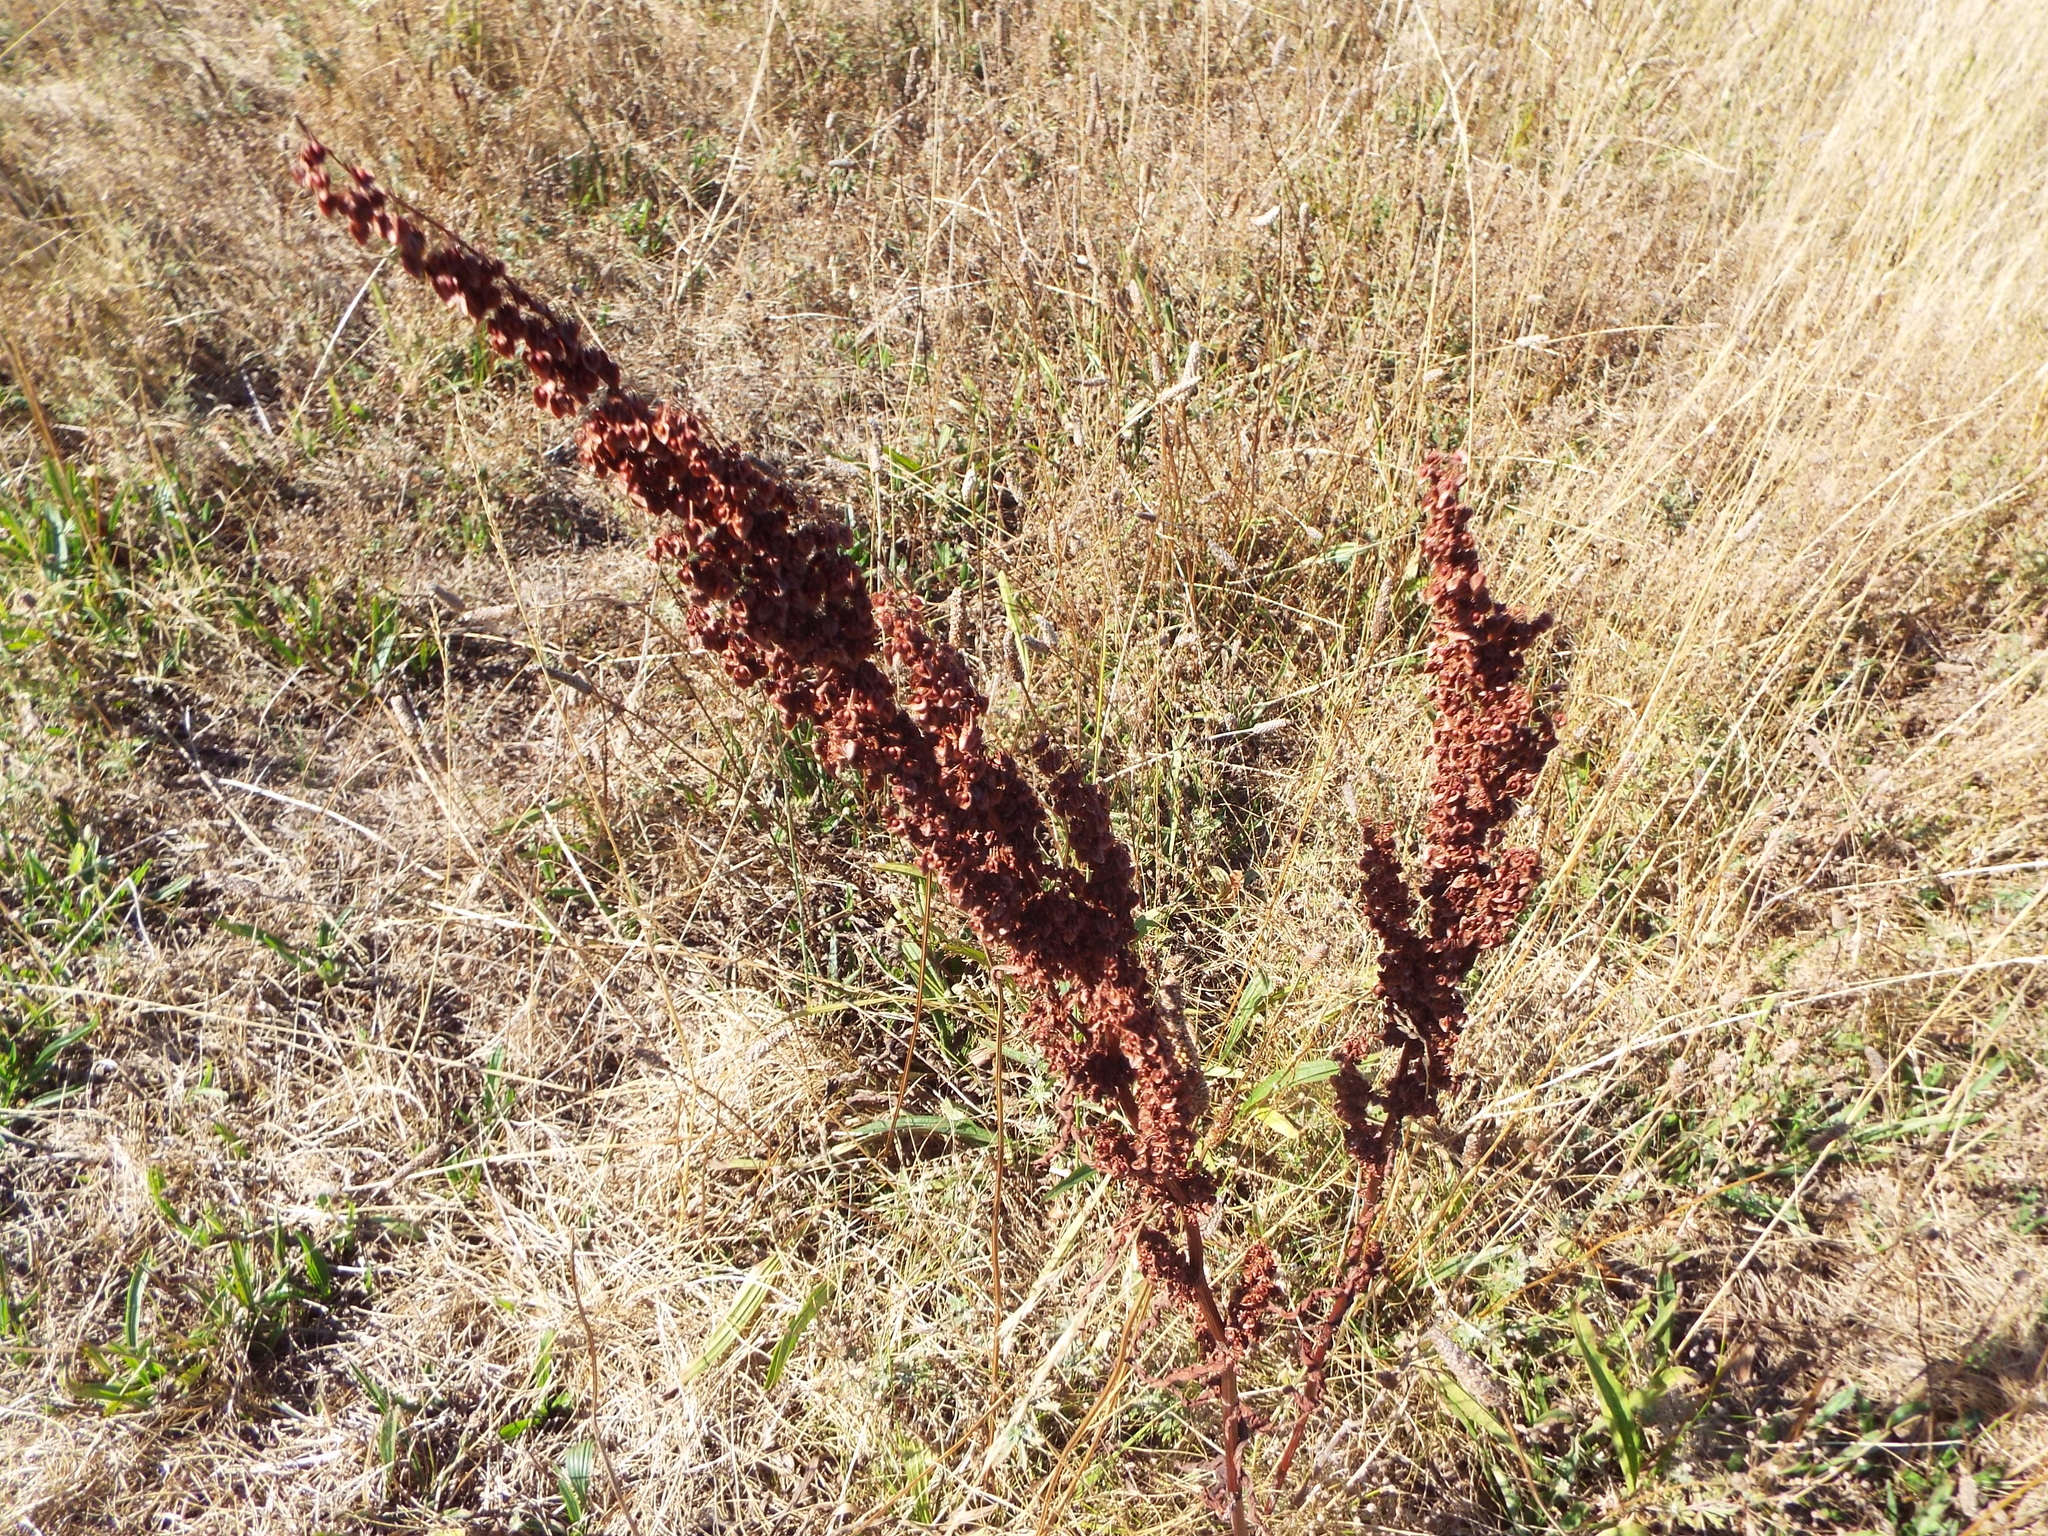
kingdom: Plantae
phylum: Tracheophyta
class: Magnoliopsida
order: Caryophyllales
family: Polygonaceae
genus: Rumex
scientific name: Rumex crispus
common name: Curled dock
